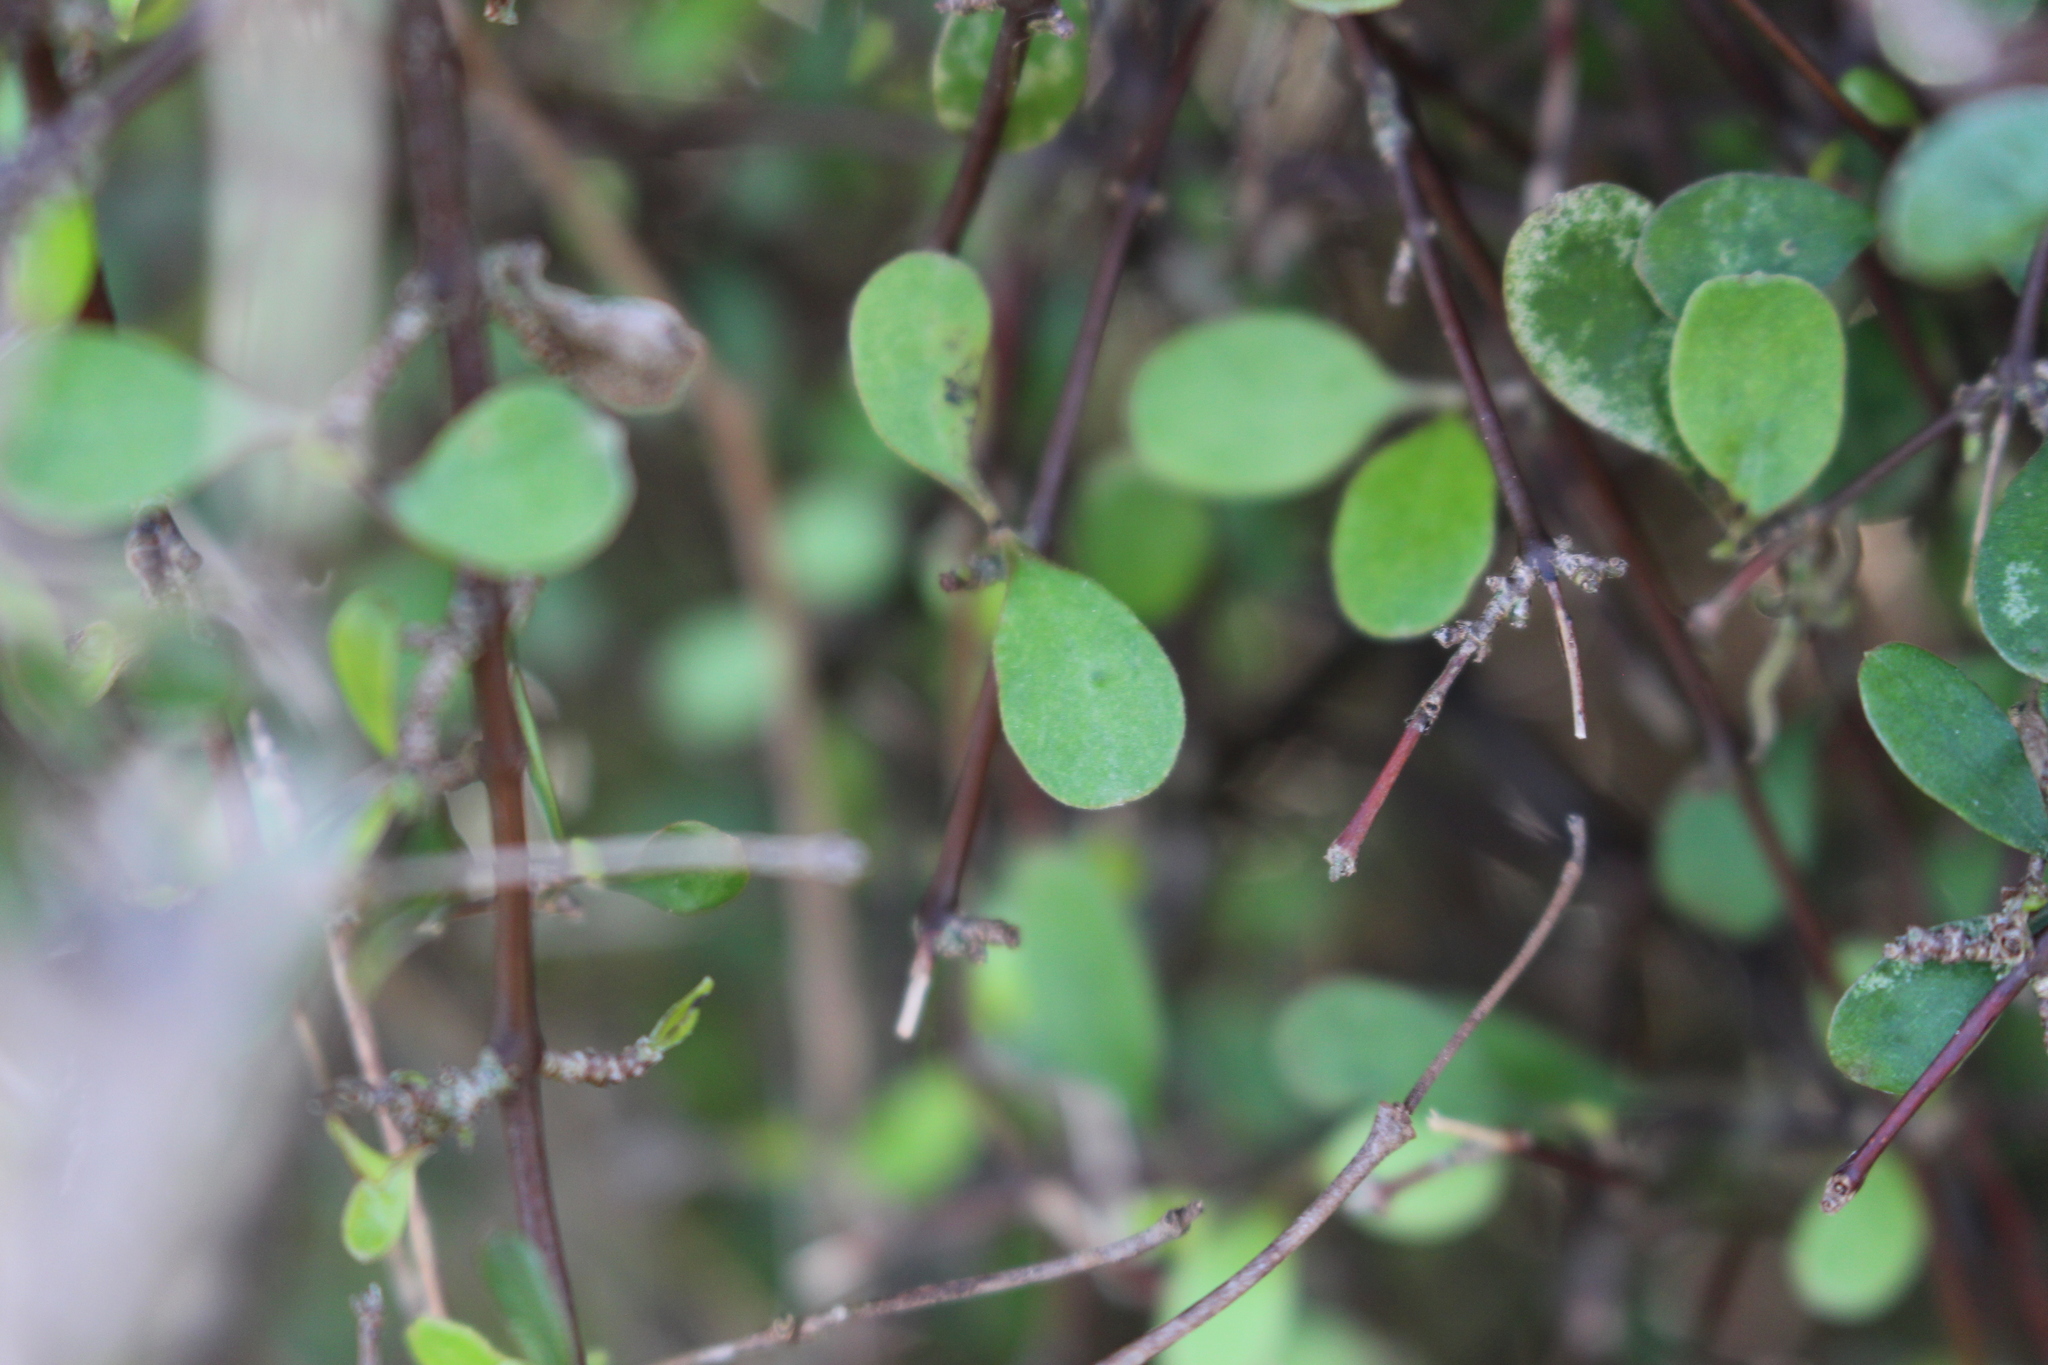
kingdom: Plantae
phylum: Tracheophyta
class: Magnoliopsida
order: Gentianales
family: Rubiaceae
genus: Coprosma
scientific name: Coprosma rigida
